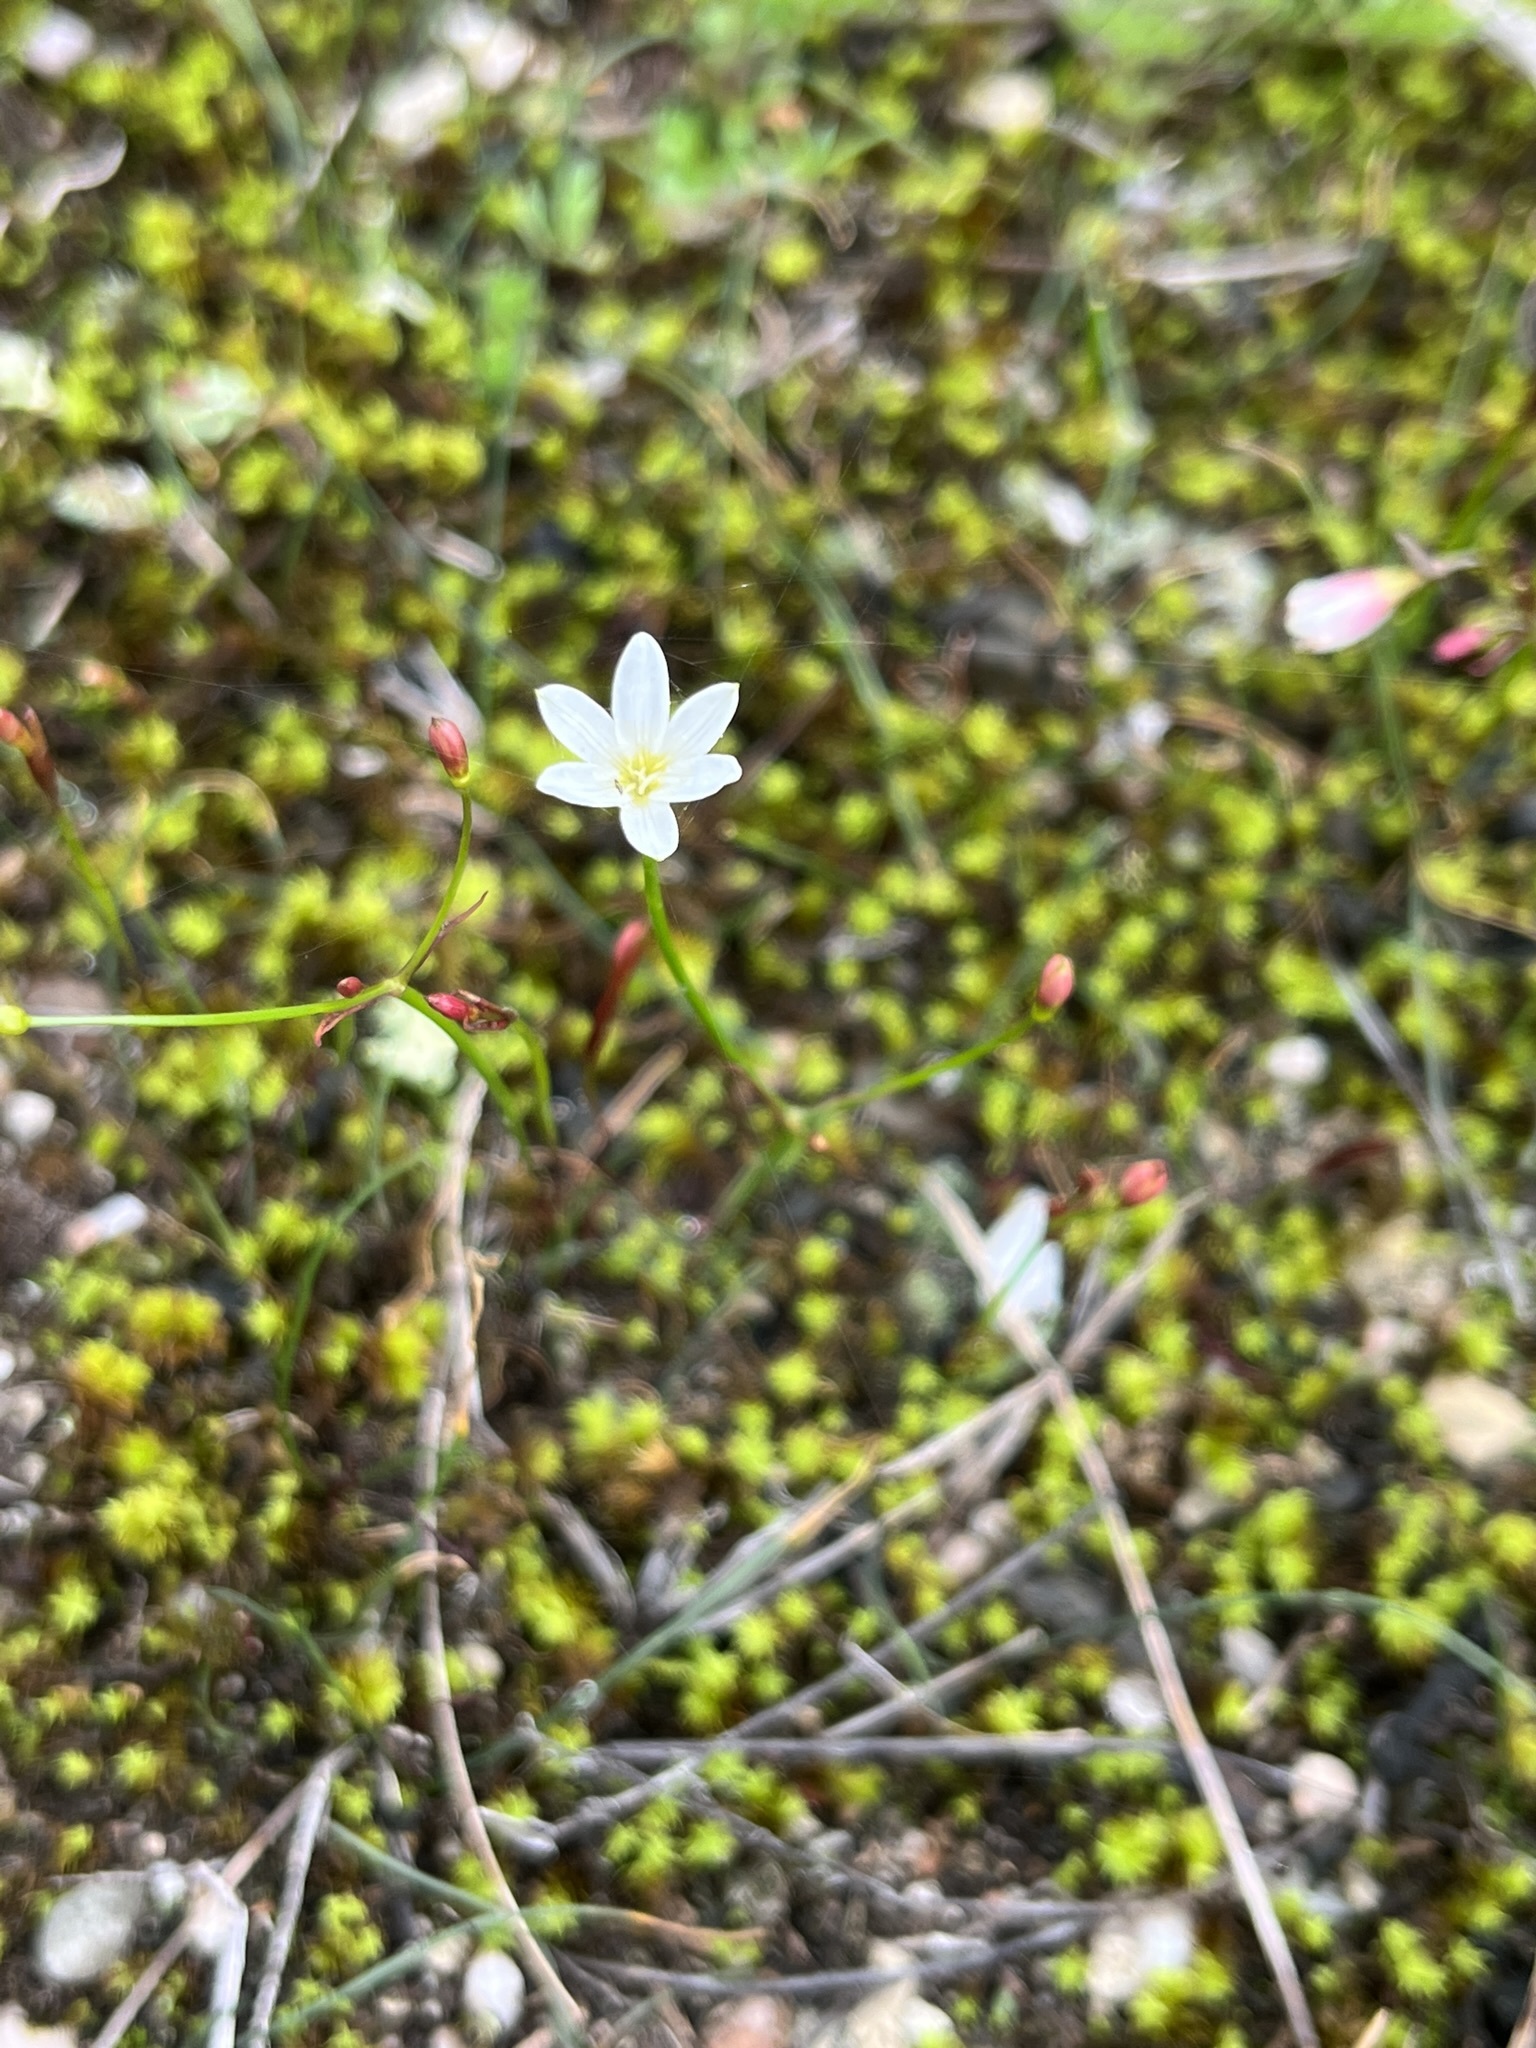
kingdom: Plantae
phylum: Tracheophyta
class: Liliopsida
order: Asparagales
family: Amaryllidaceae
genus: Strumaria
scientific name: Strumaria spiralis
